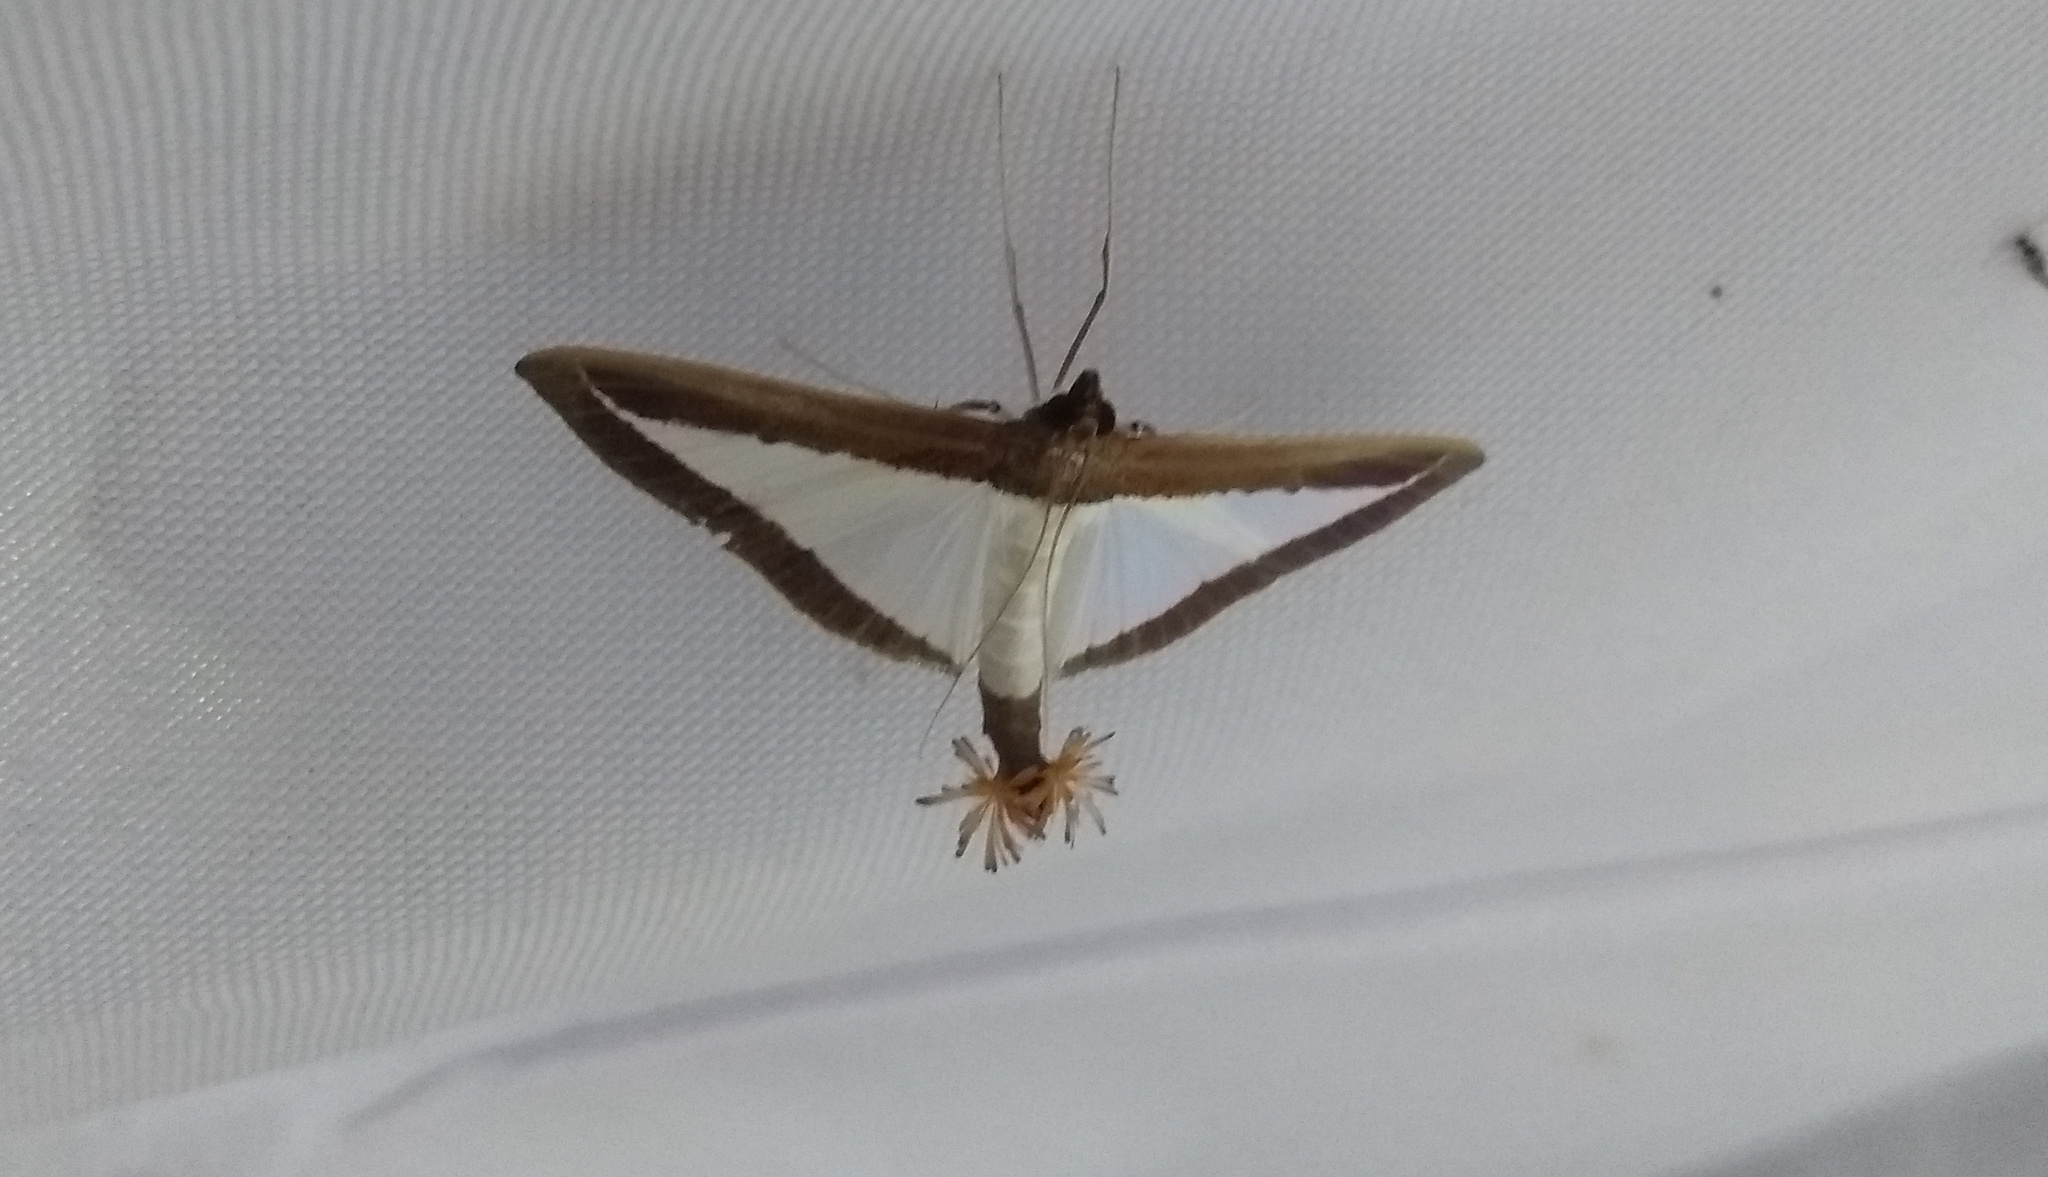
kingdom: Animalia
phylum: Arthropoda
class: Insecta
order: Lepidoptera
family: Crambidae
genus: Diaphania
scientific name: Diaphania hyalinata
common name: Melonworm
